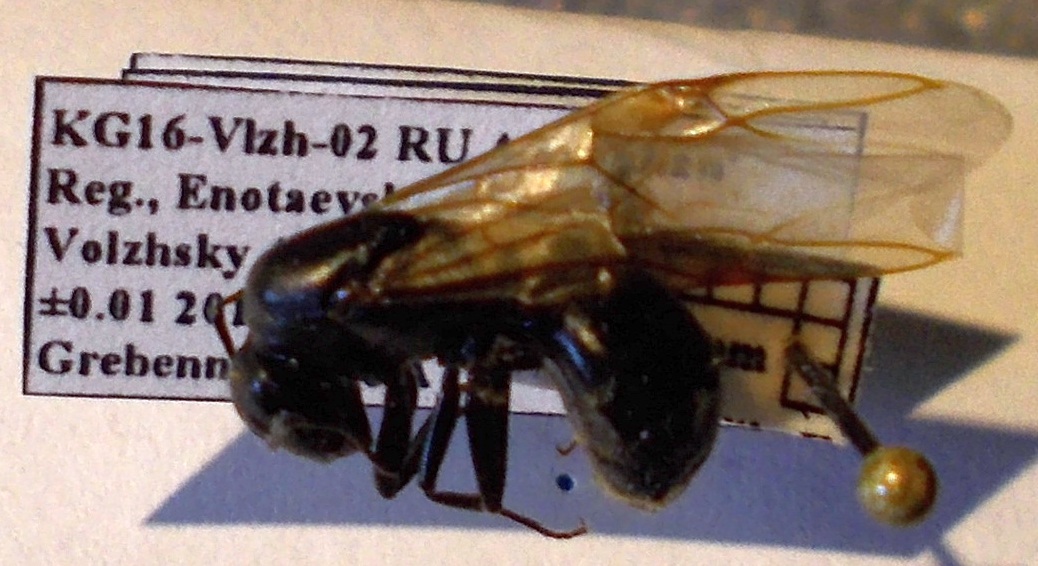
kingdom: Animalia
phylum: Arthropoda
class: Insecta
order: Hymenoptera
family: Formicidae
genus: Camponotus
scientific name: Camponotus vagus
